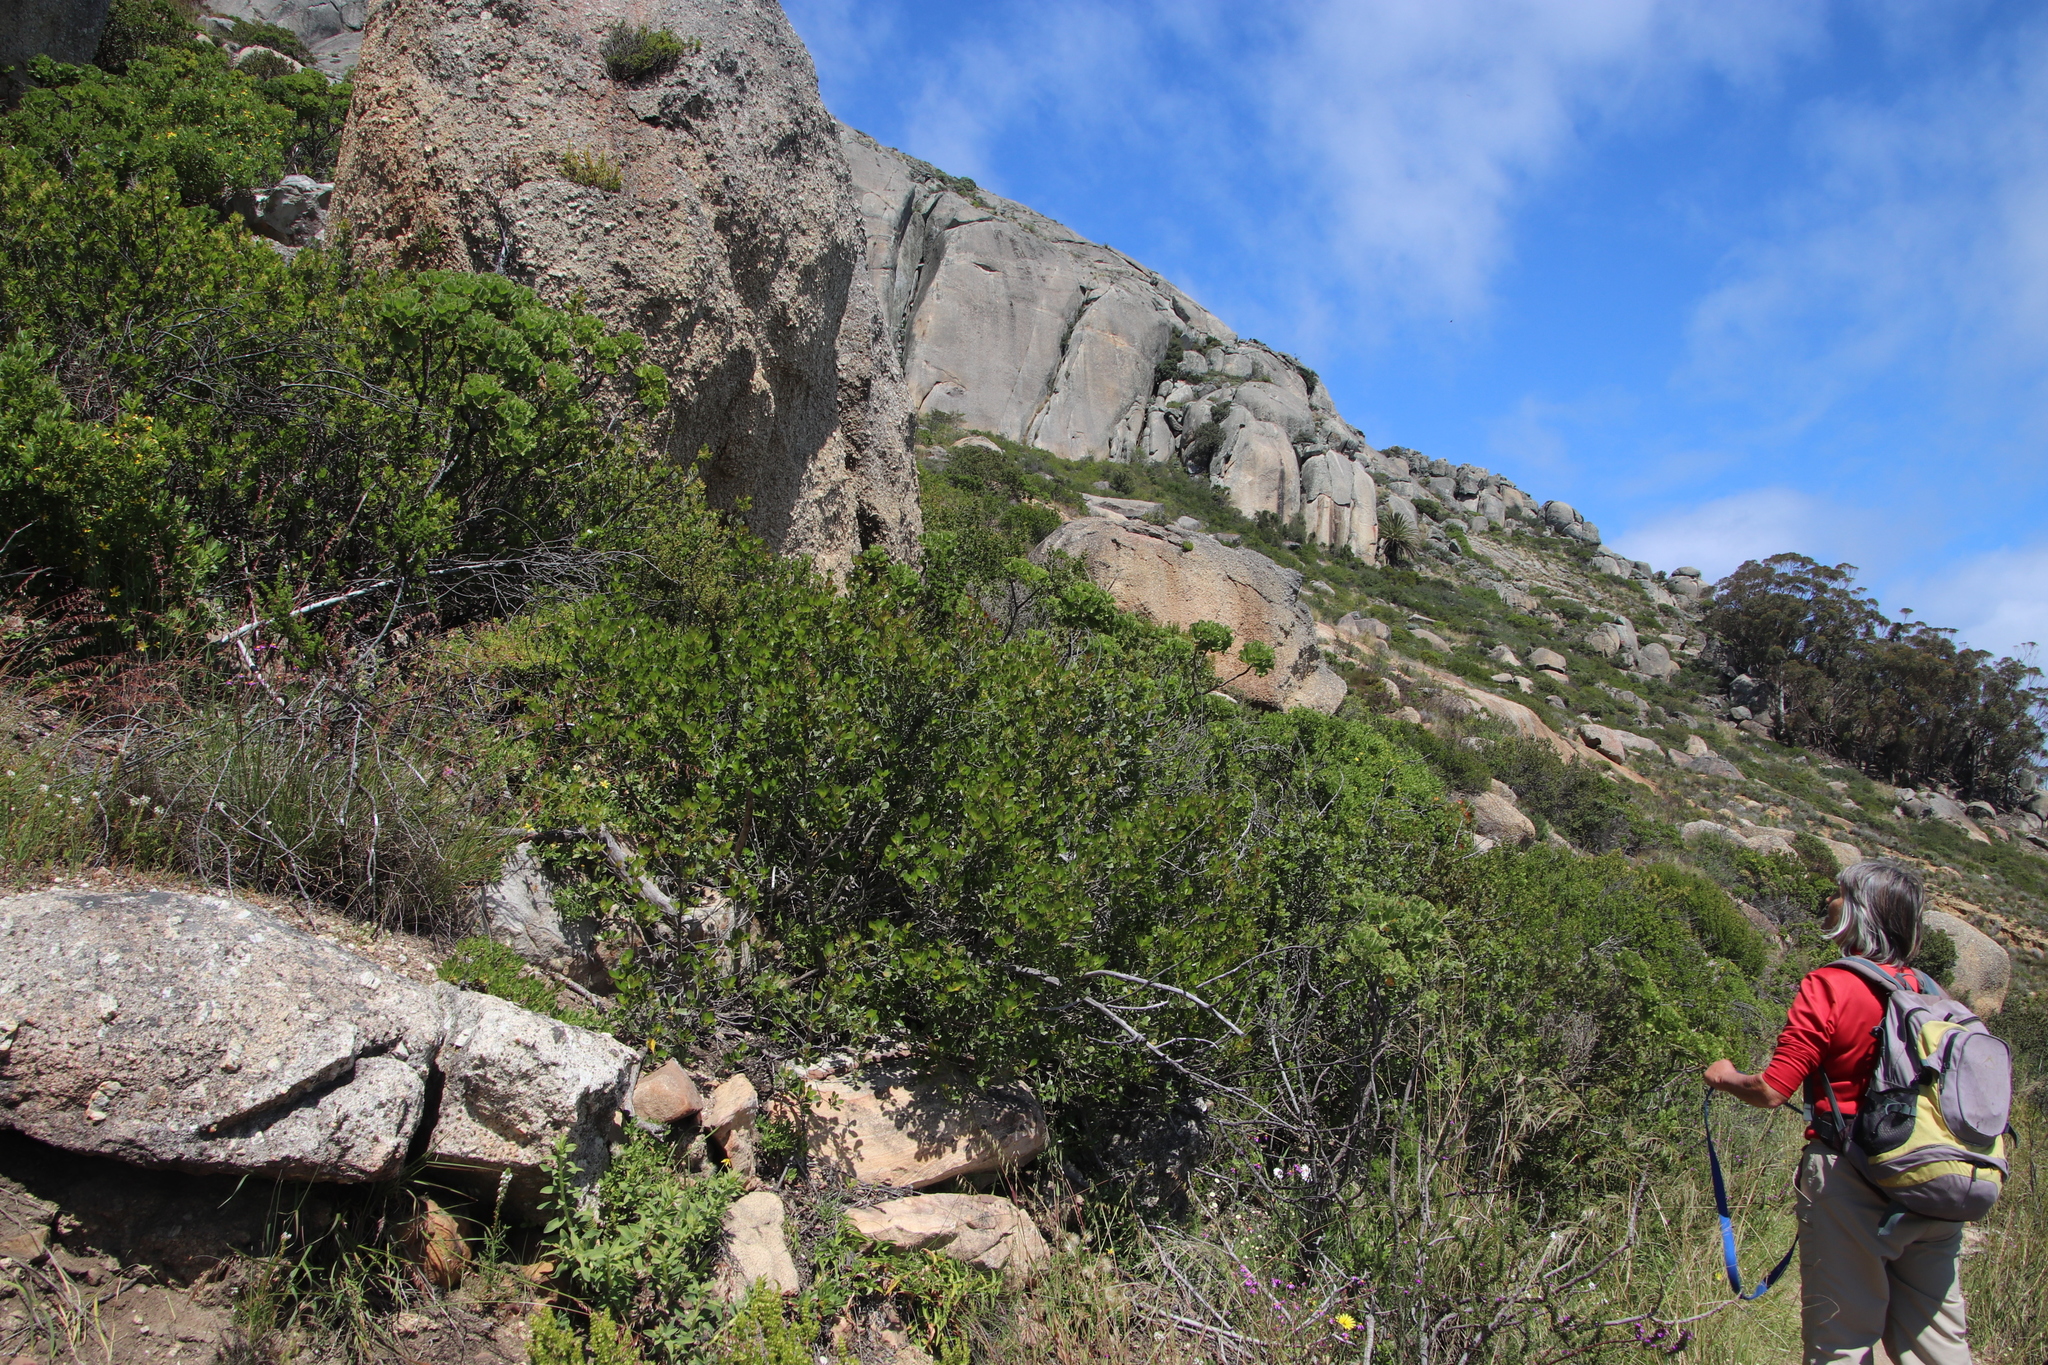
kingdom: Plantae
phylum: Tracheophyta
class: Magnoliopsida
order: Sapindales
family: Anacardiaceae
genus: Searsia
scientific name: Searsia lucida
